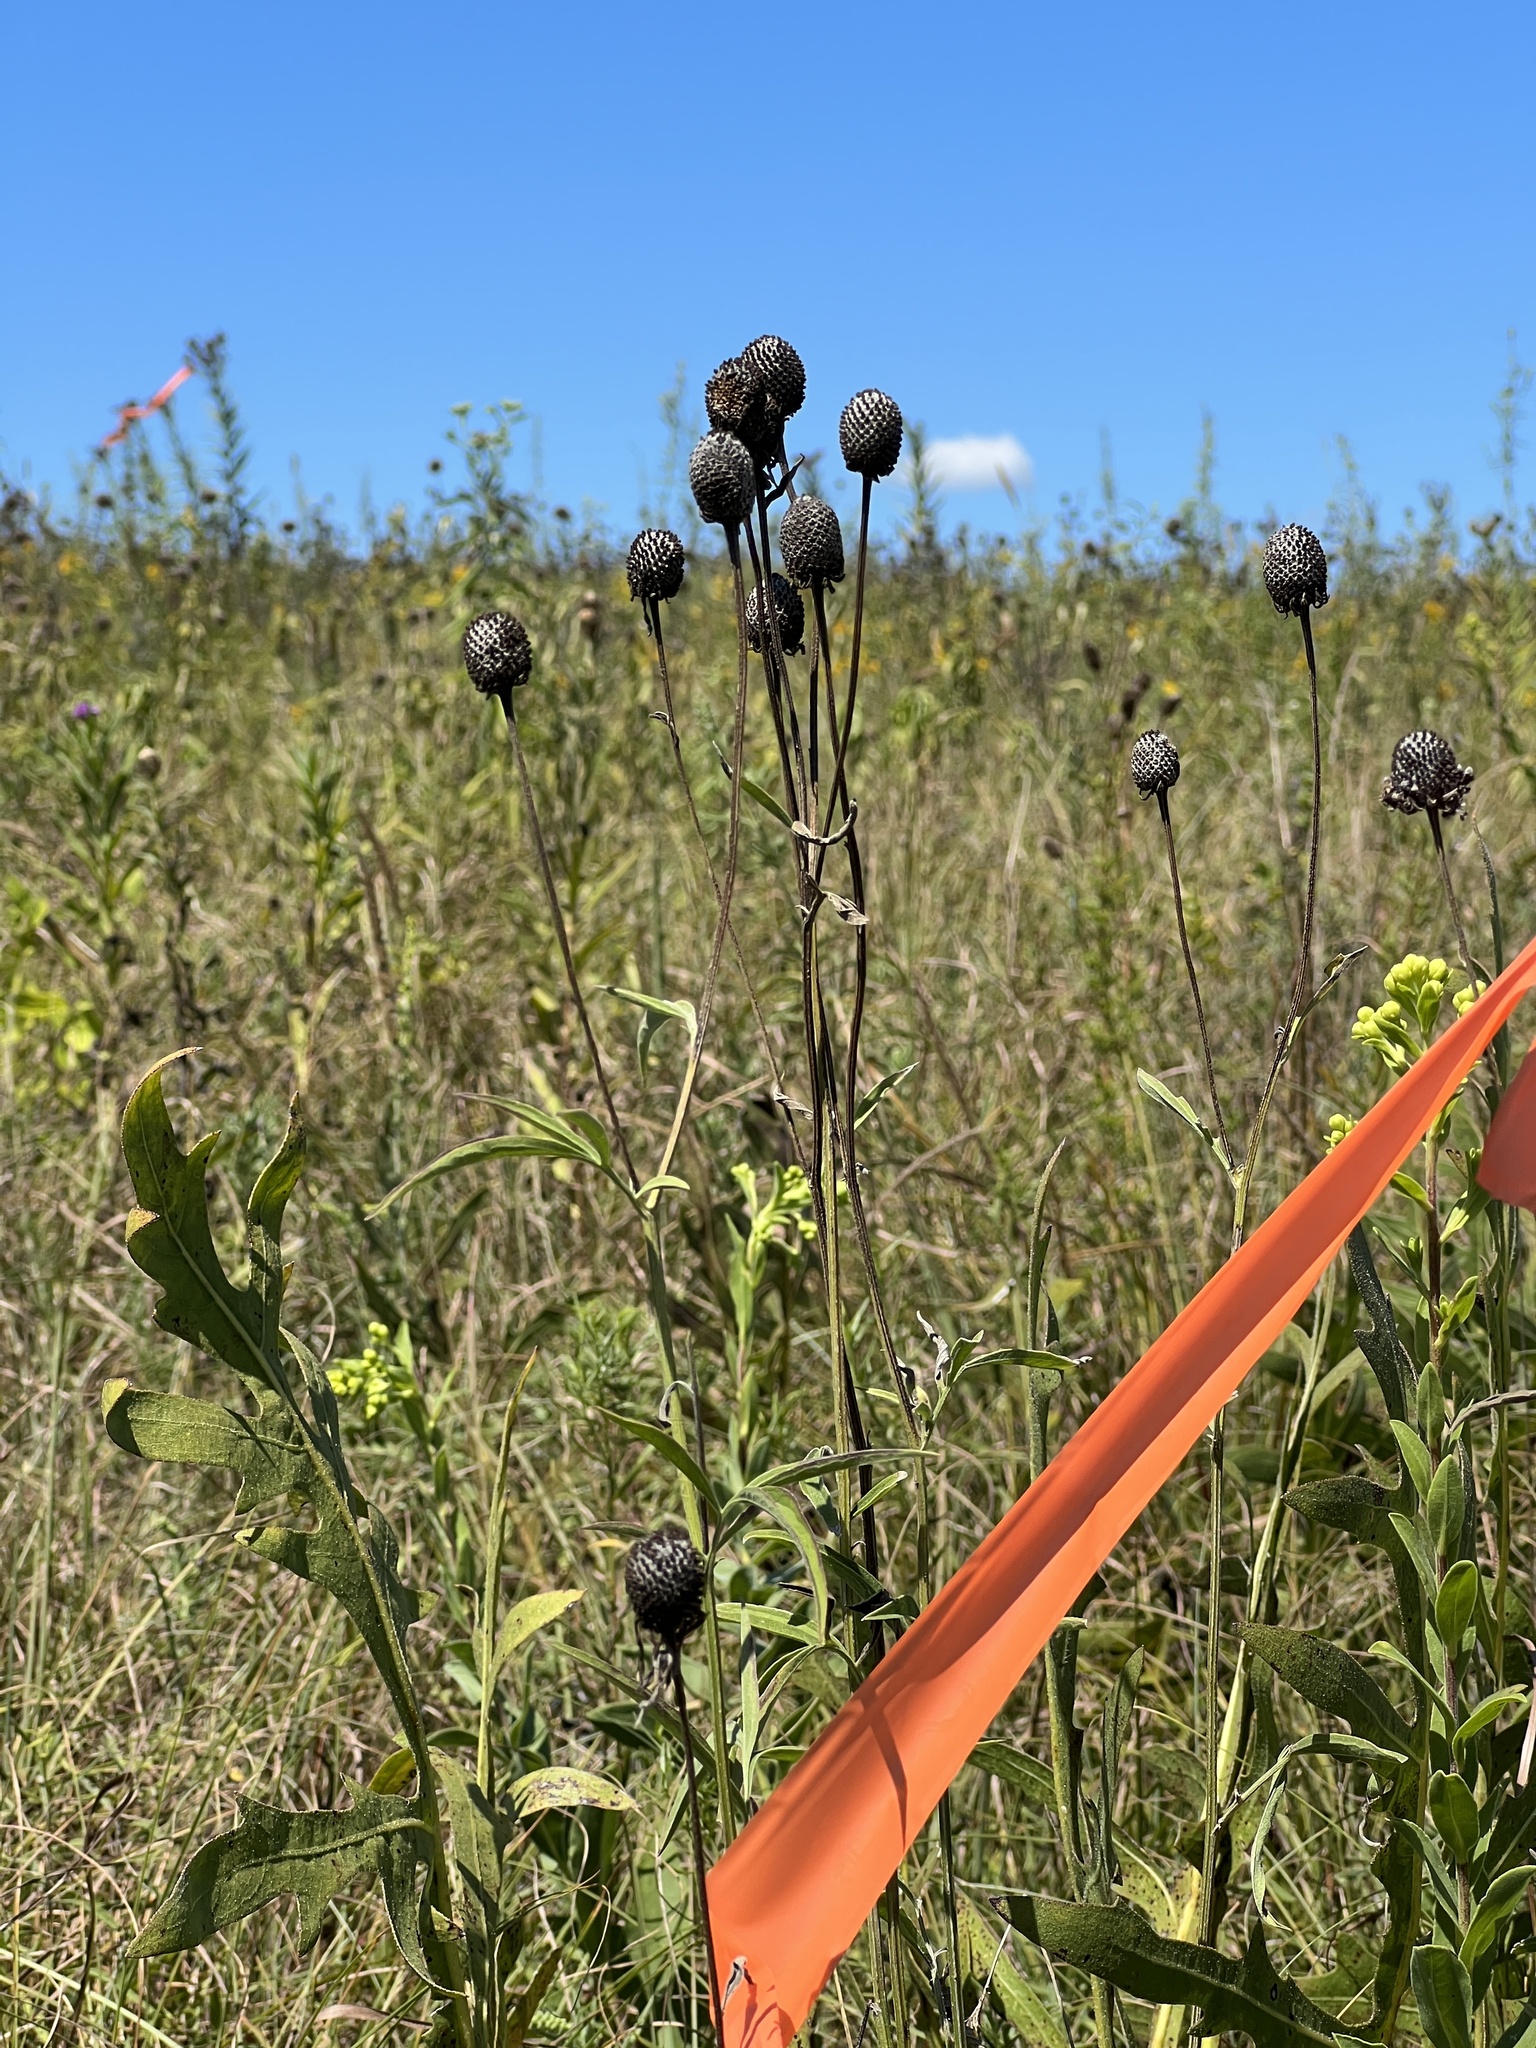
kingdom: Plantae
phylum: Tracheophyta
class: Magnoliopsida
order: Asterales
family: Asteraceae
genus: Ratibida
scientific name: Ratibida pinnata
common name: Drooping prairie-coneflower
